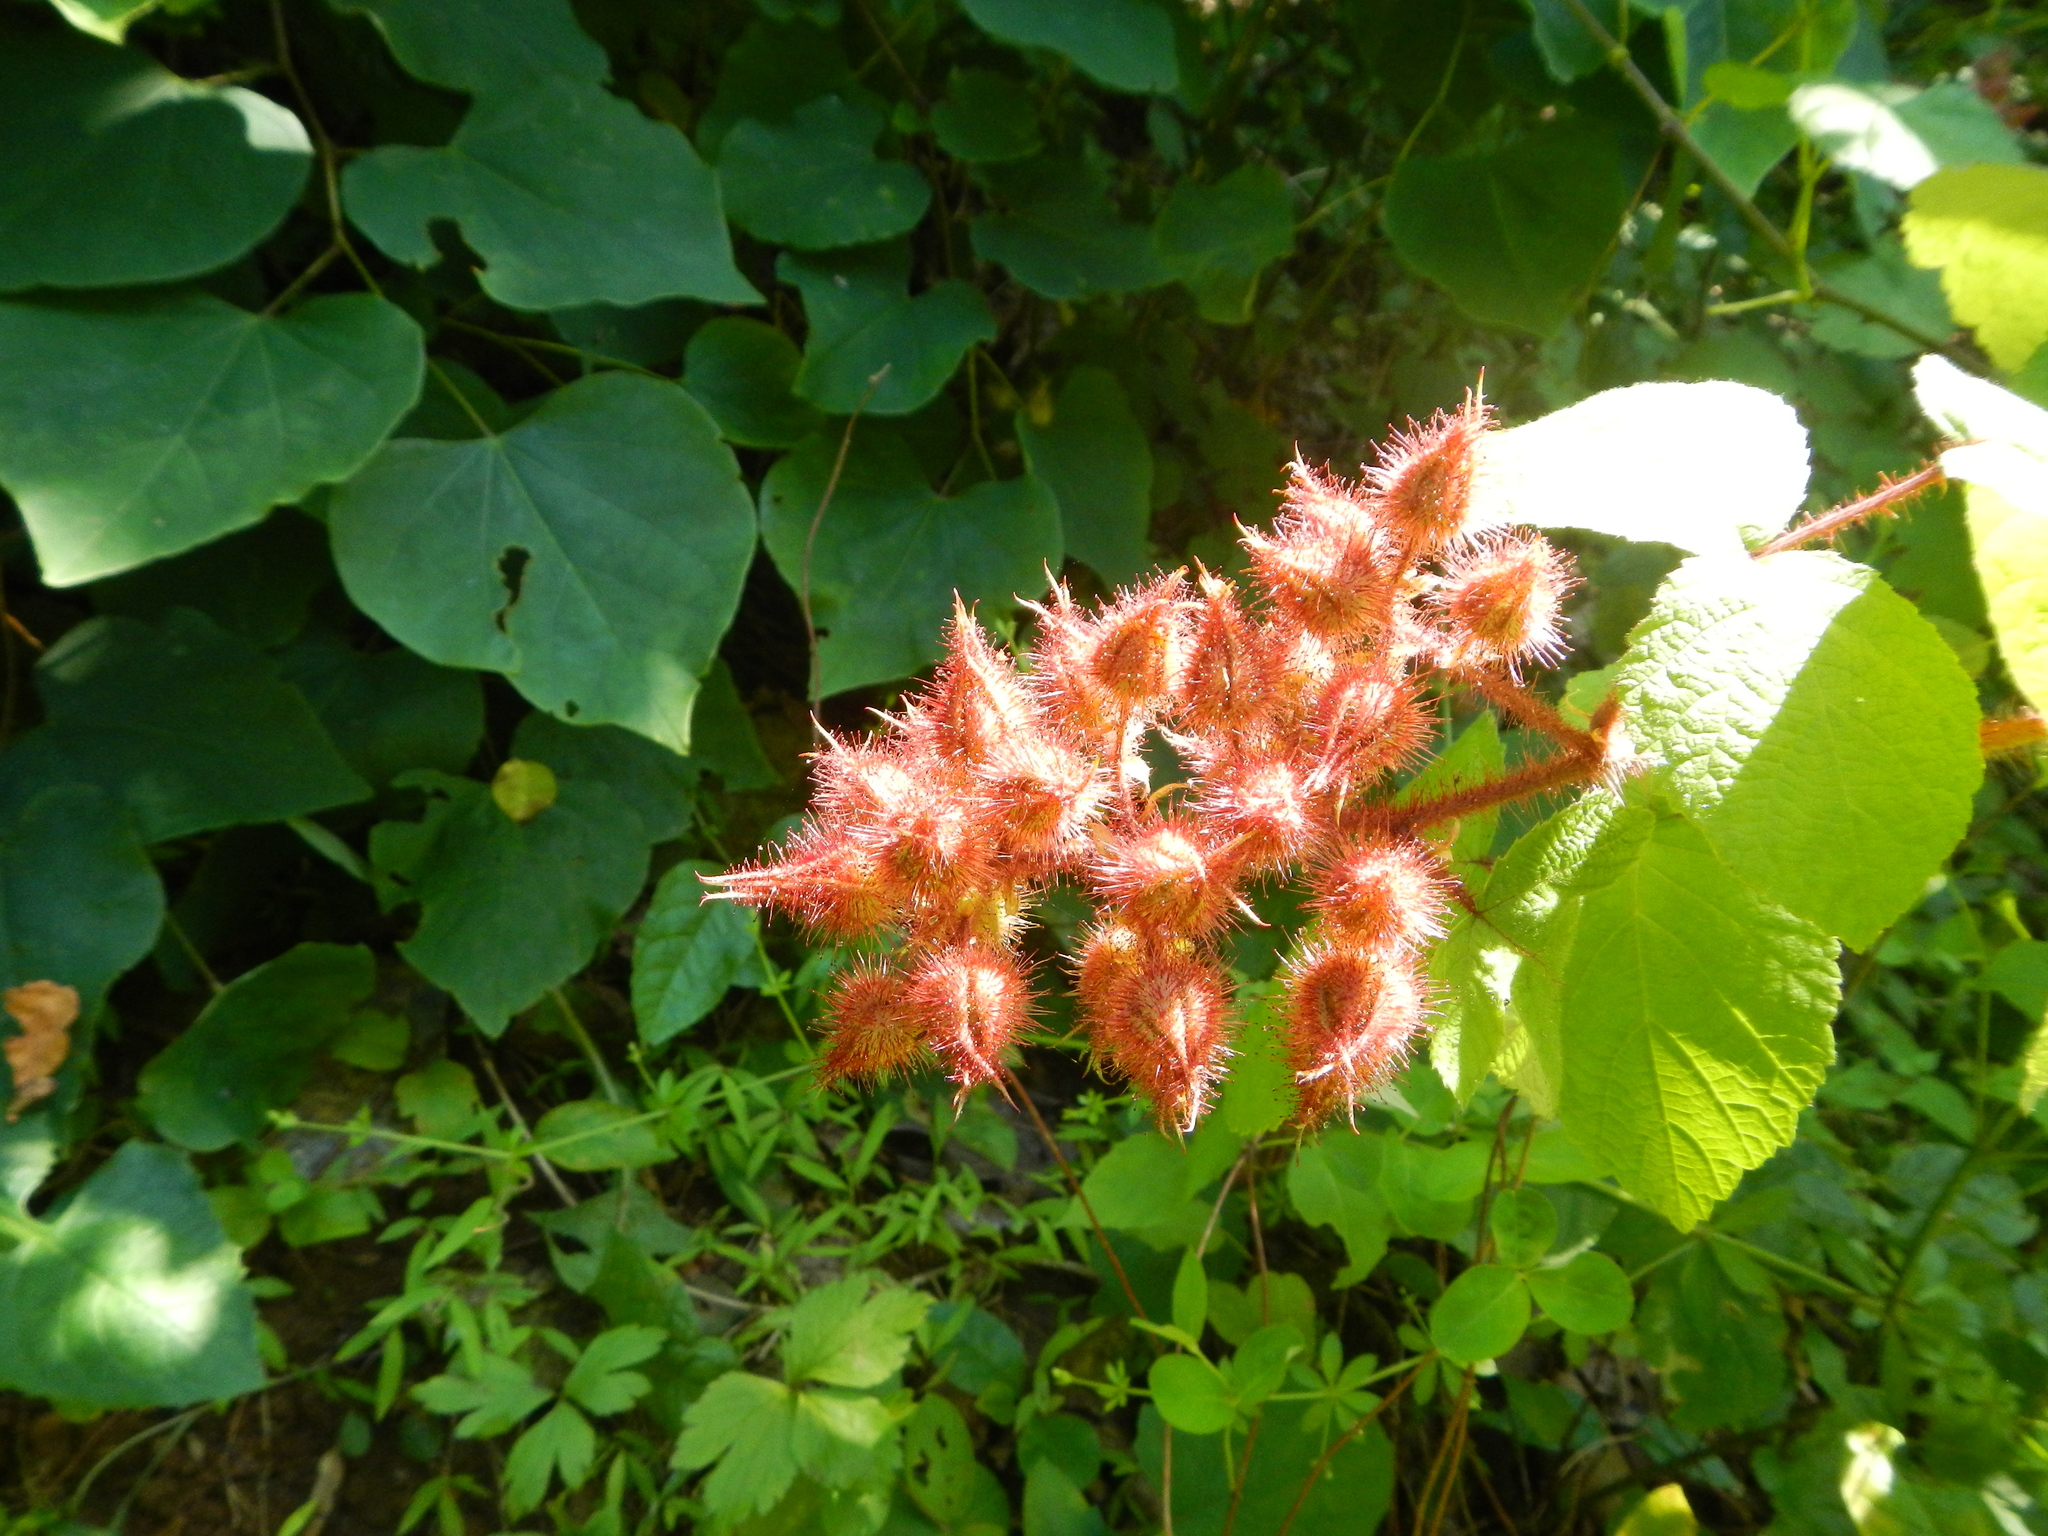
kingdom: Plantae
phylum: Tracheophyta
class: Magnoliopsida
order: Rosales
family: Rosaceae
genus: Rubus
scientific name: Rubus phoenicolasius
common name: Japanese wineberry
